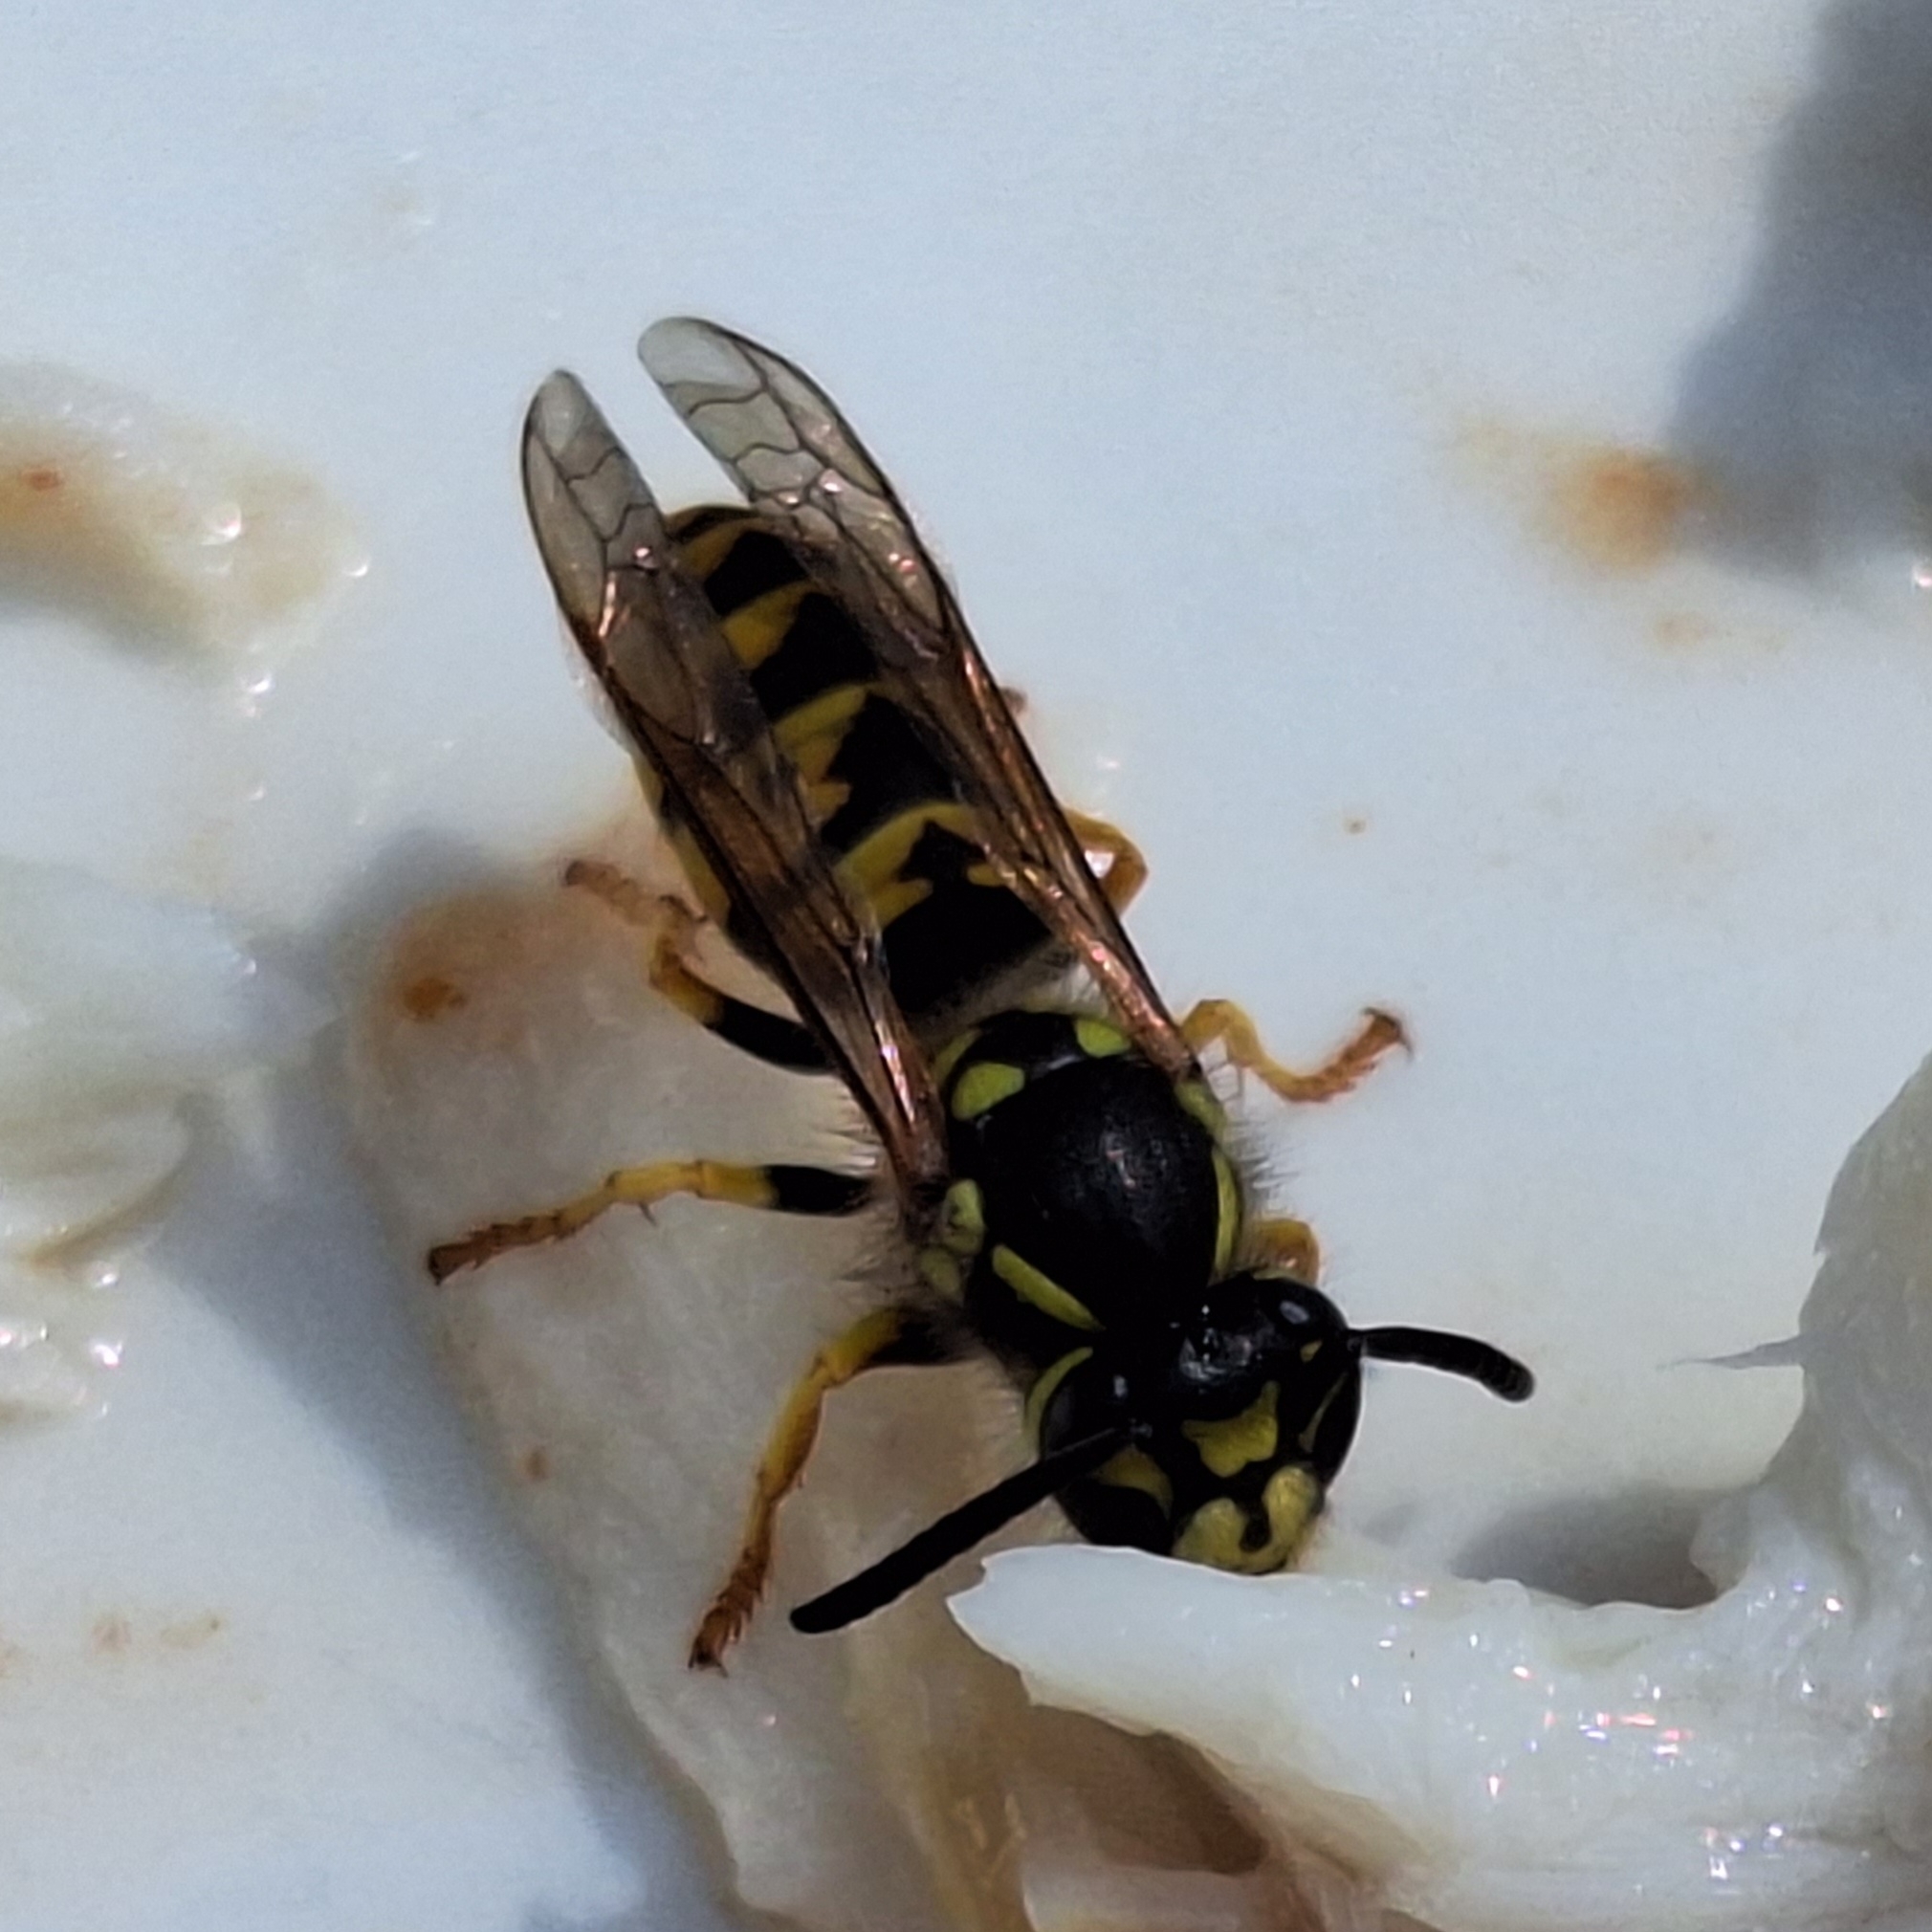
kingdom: Animalia
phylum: Arthropoda
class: Insecta
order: Hymenoptera
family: Vespidae
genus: Vespula
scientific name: Vespula germanica
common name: German wasp
